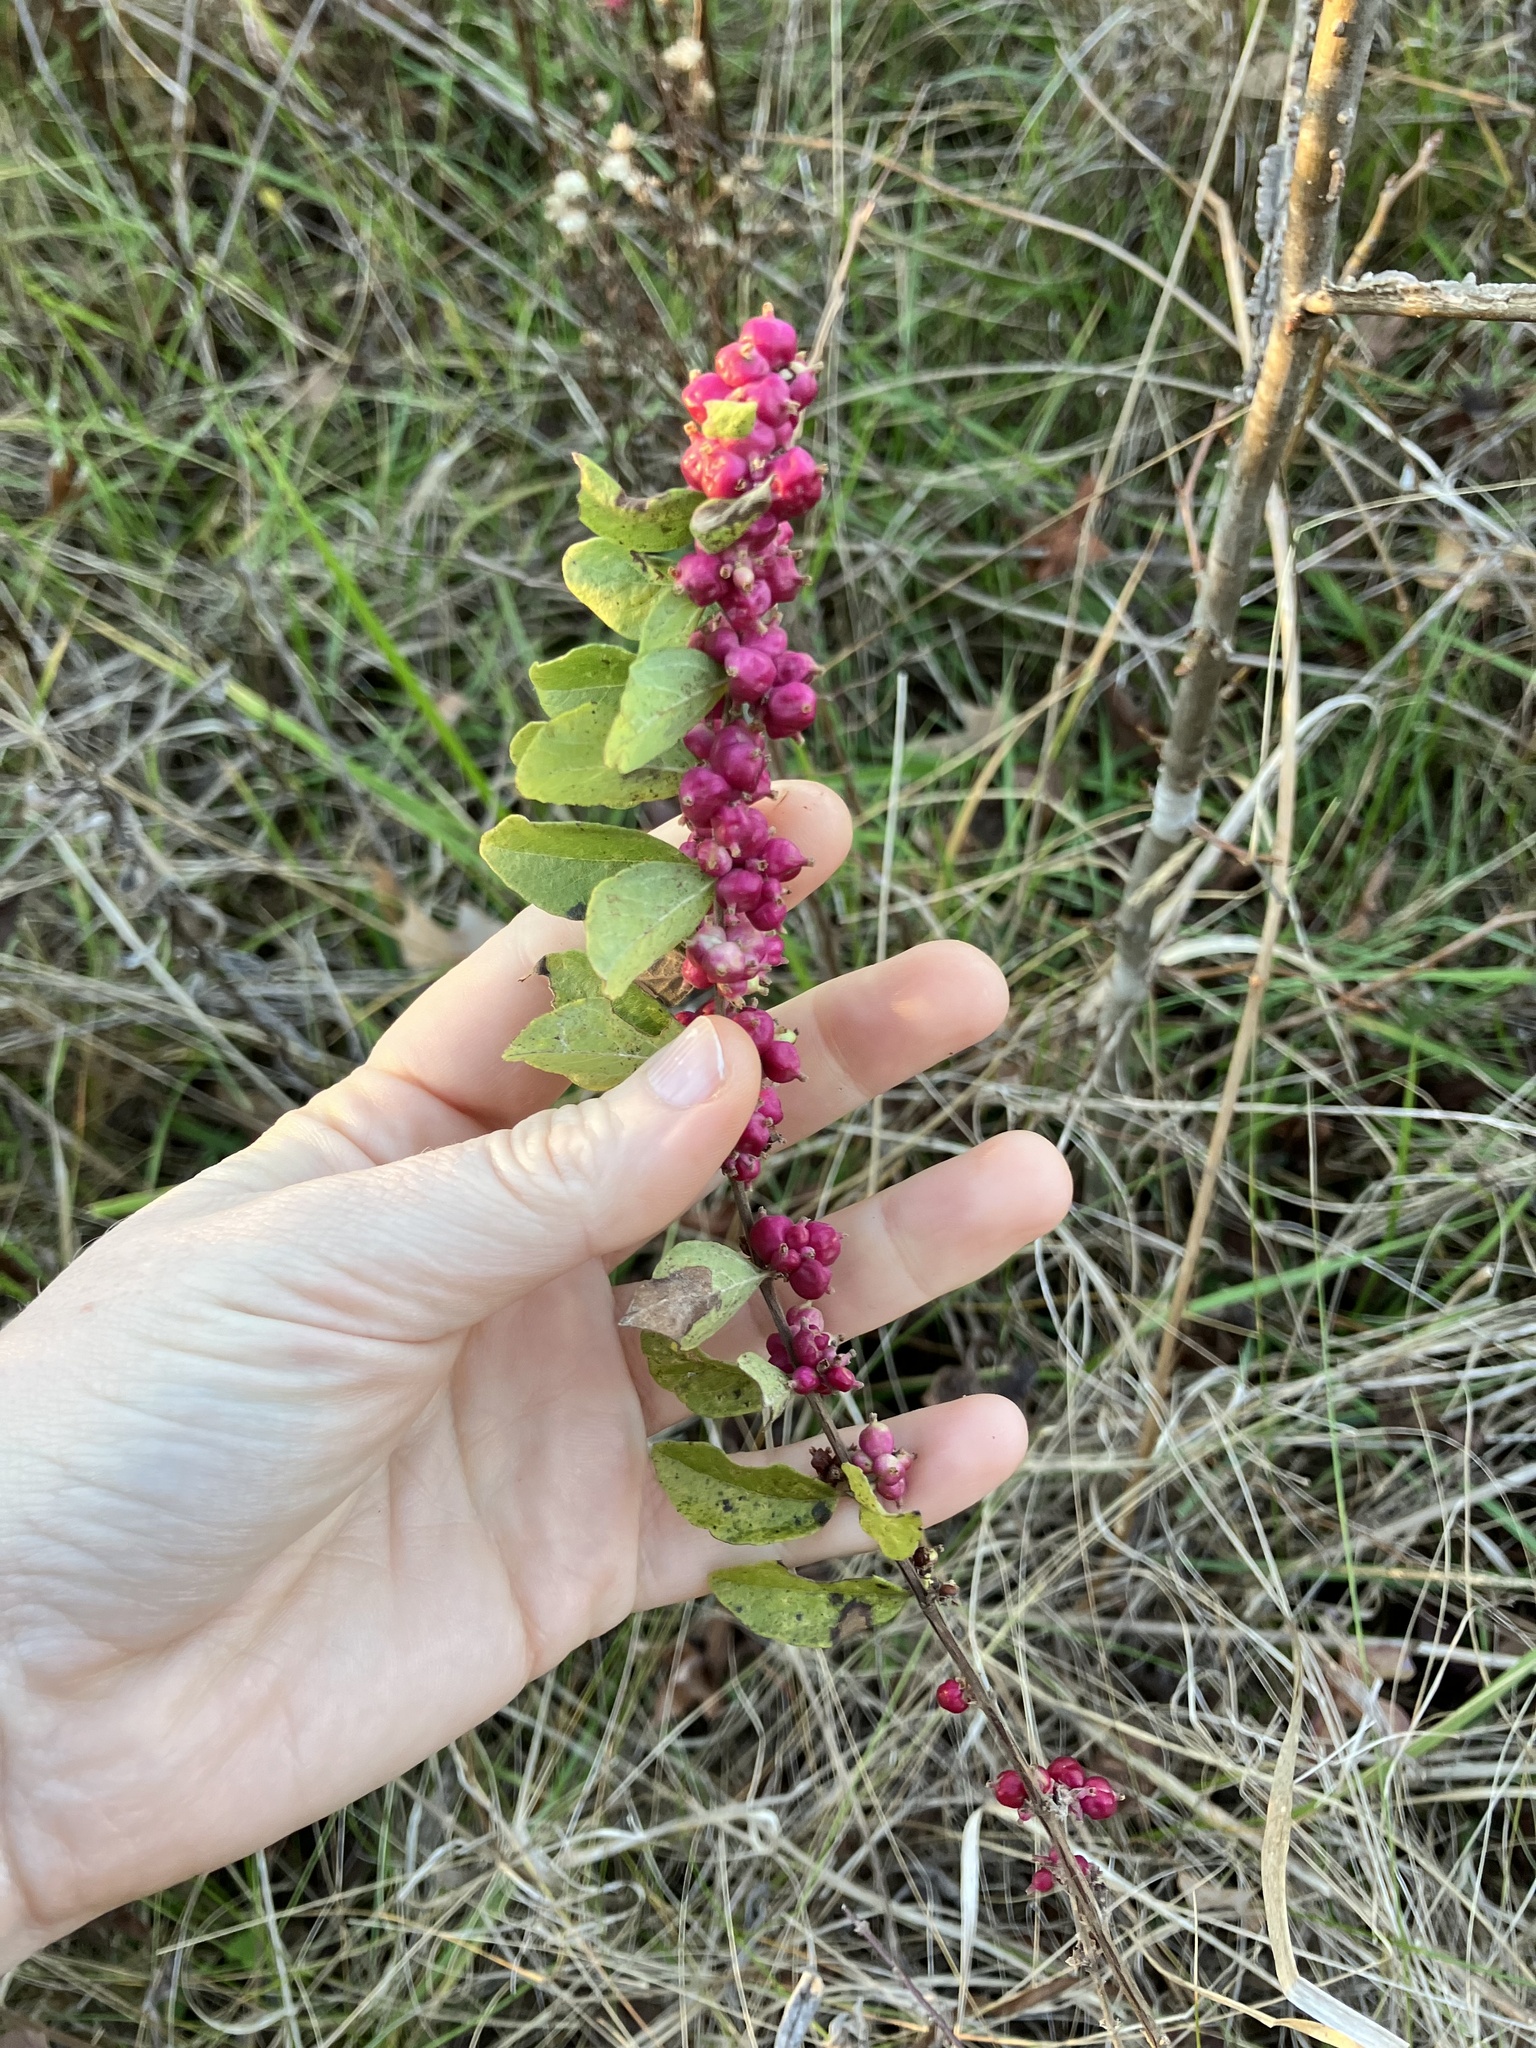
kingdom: Plantae
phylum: Tracheophyta
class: Magnoliopsida
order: Dipsacales
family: Caprifoliaceae
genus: Symphoricarpos
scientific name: Symphoricarpos orbiculatus
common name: Coralberry
